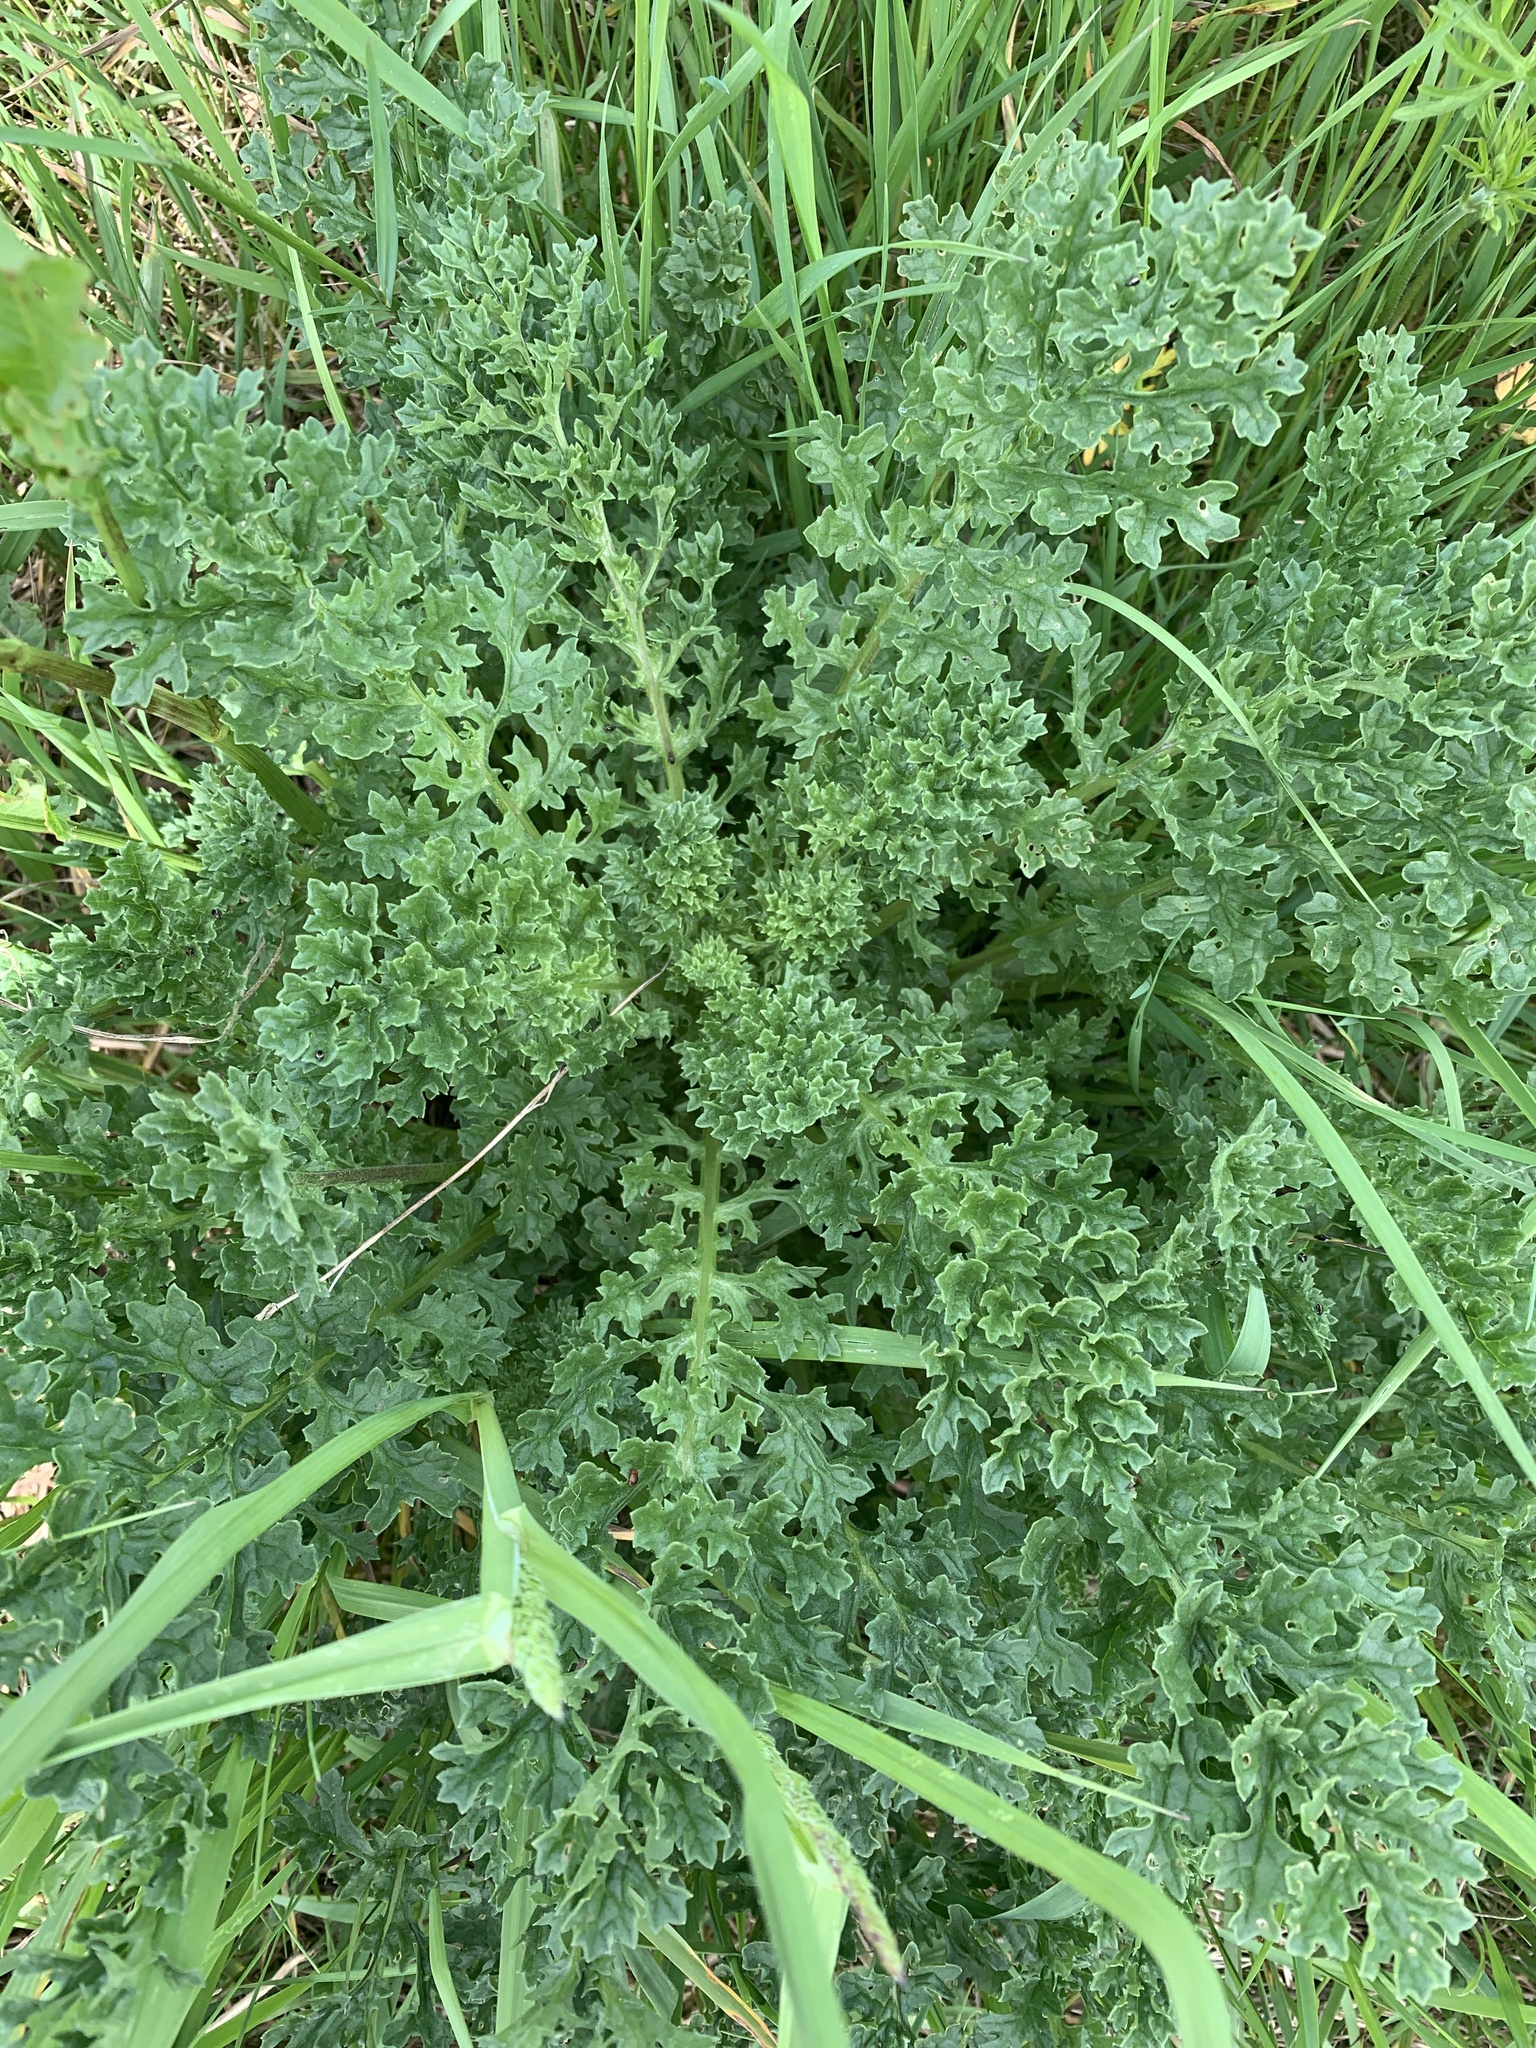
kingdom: Plantae
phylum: Tracheophyta
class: Magnoliopsida
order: Asterales
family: Asteraceae
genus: Jacobaea
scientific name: Jacobaea vulgaris
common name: Stinking willie
